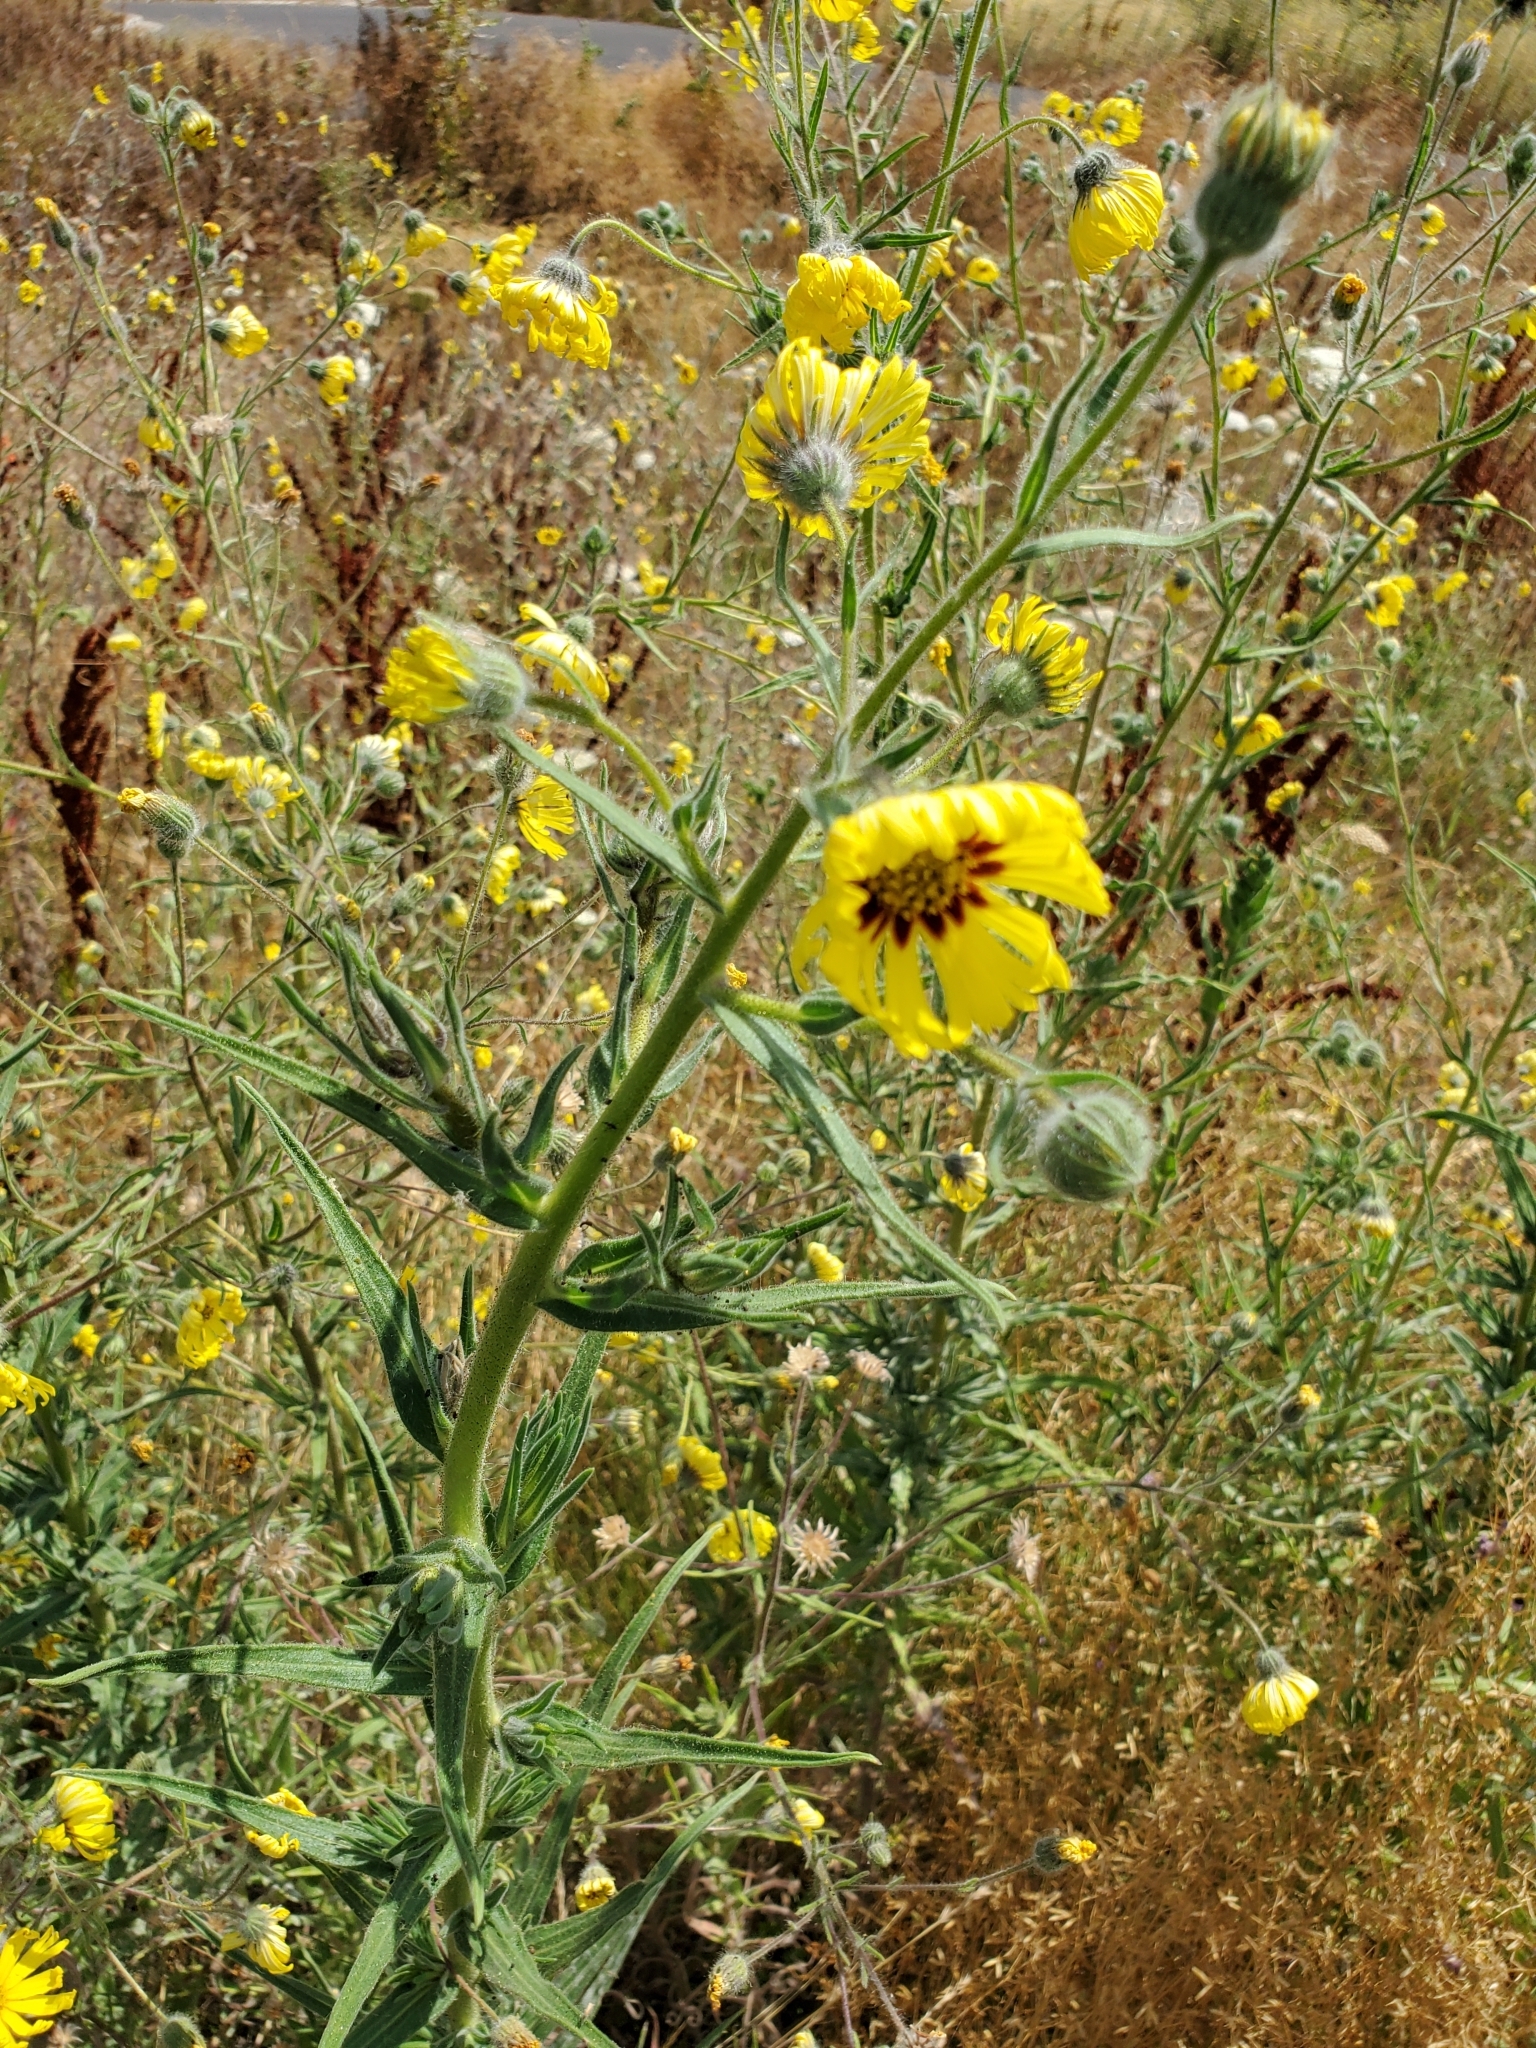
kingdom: Plantae
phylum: Tracheophyta
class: Magnoliopsida
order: Asterales
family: Asteraceae
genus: Madia
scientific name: Madia elegans
